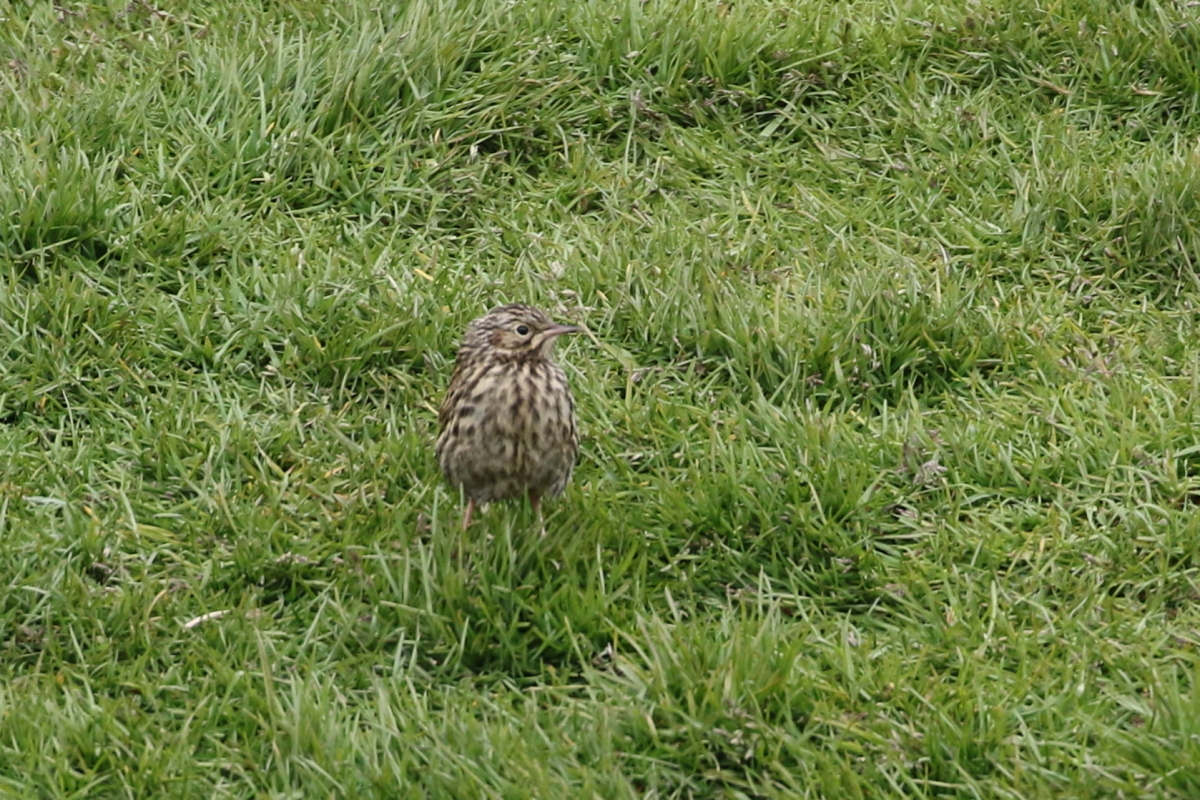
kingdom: Animalia
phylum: Chordata
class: Aves
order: Passeriformes
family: Motacillidae
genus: Anthus
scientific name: Anthus antarcticus
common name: South georgia pipit
